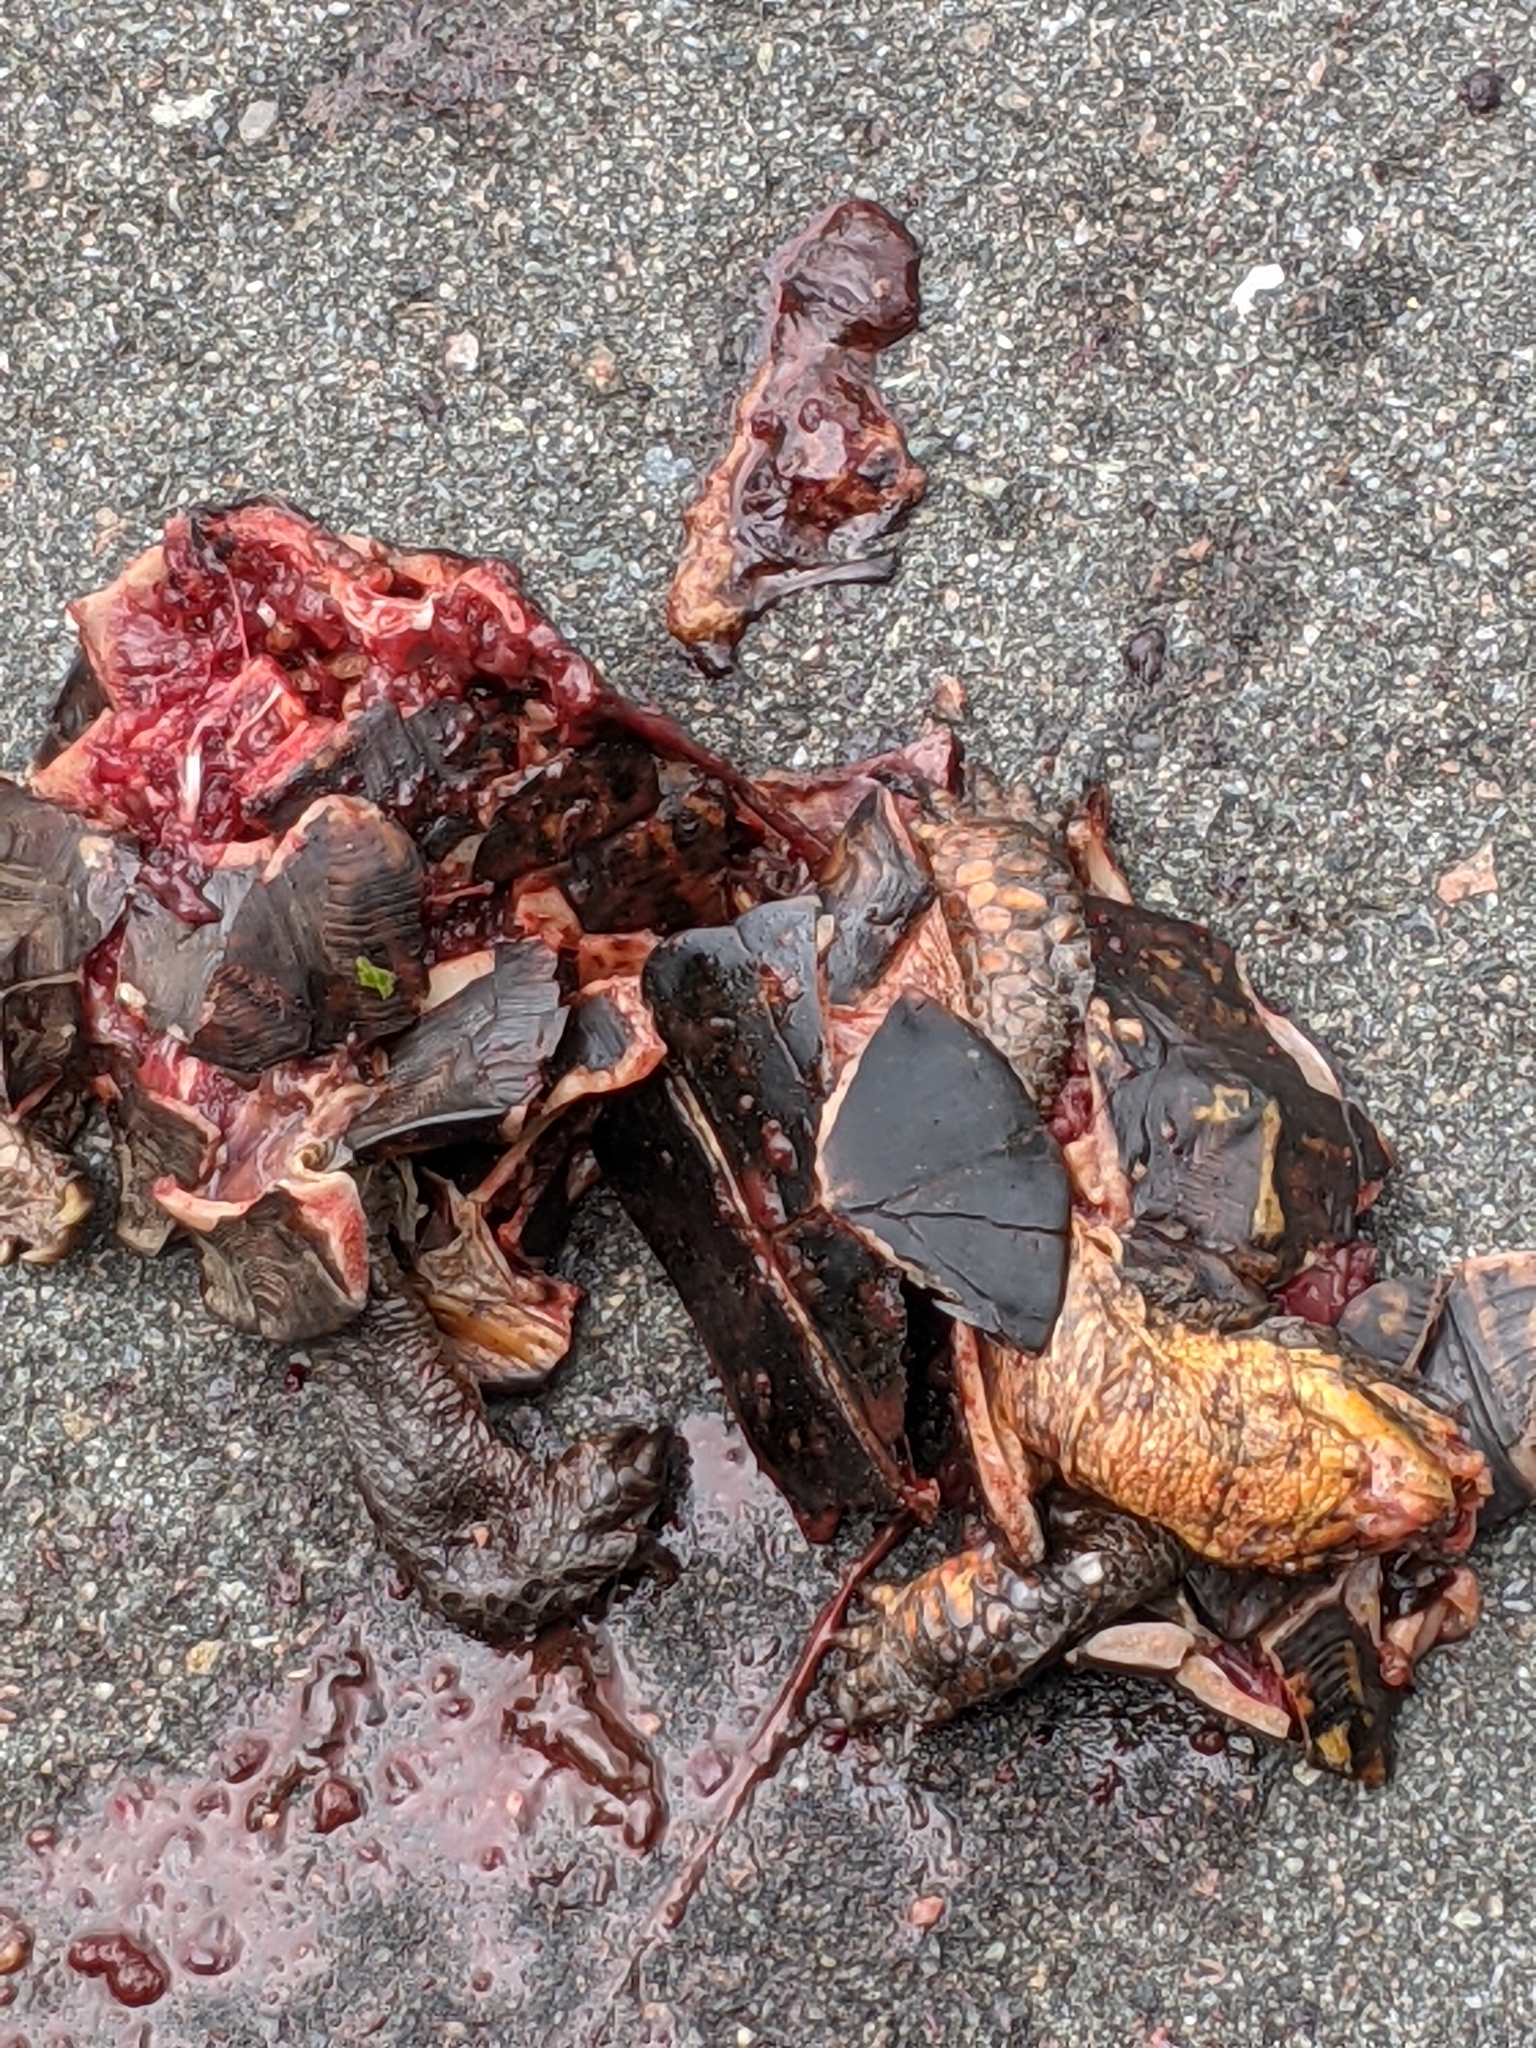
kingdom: Animalia
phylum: Chordata
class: Testudines
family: Emydidae
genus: Terrapene
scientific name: Terrapene carolina
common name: Common box turtle
